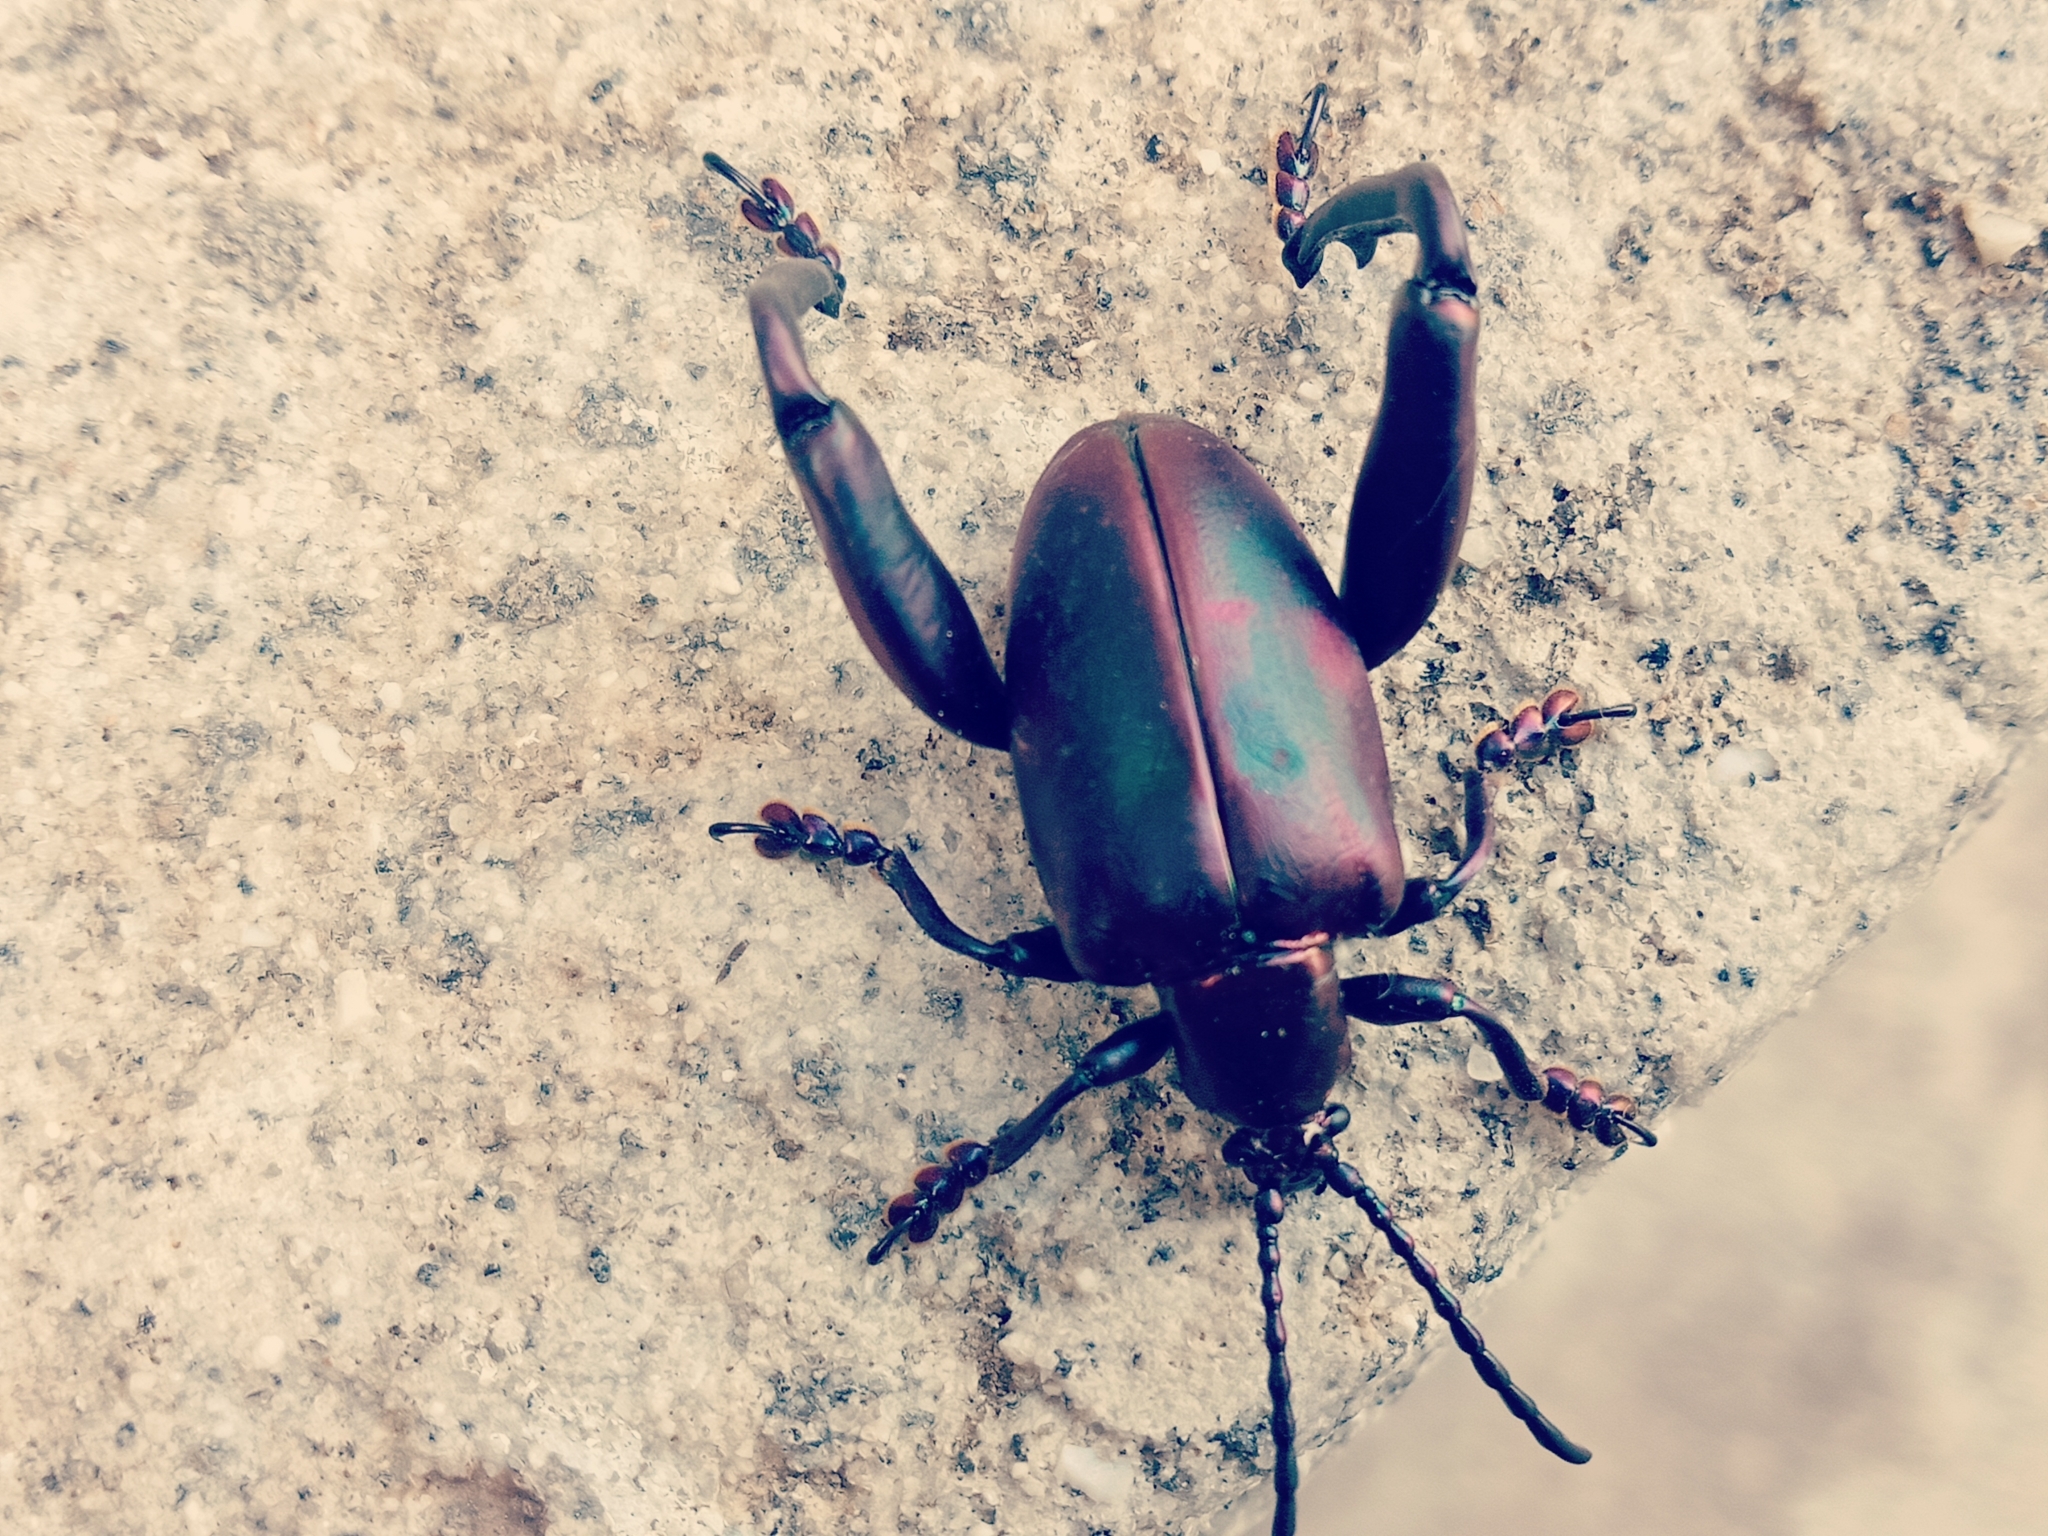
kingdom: Animalia
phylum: Arthropoda
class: Insecta
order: Coleoptera
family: Chrysomelidae
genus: Sagra
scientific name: Sagra femorata
